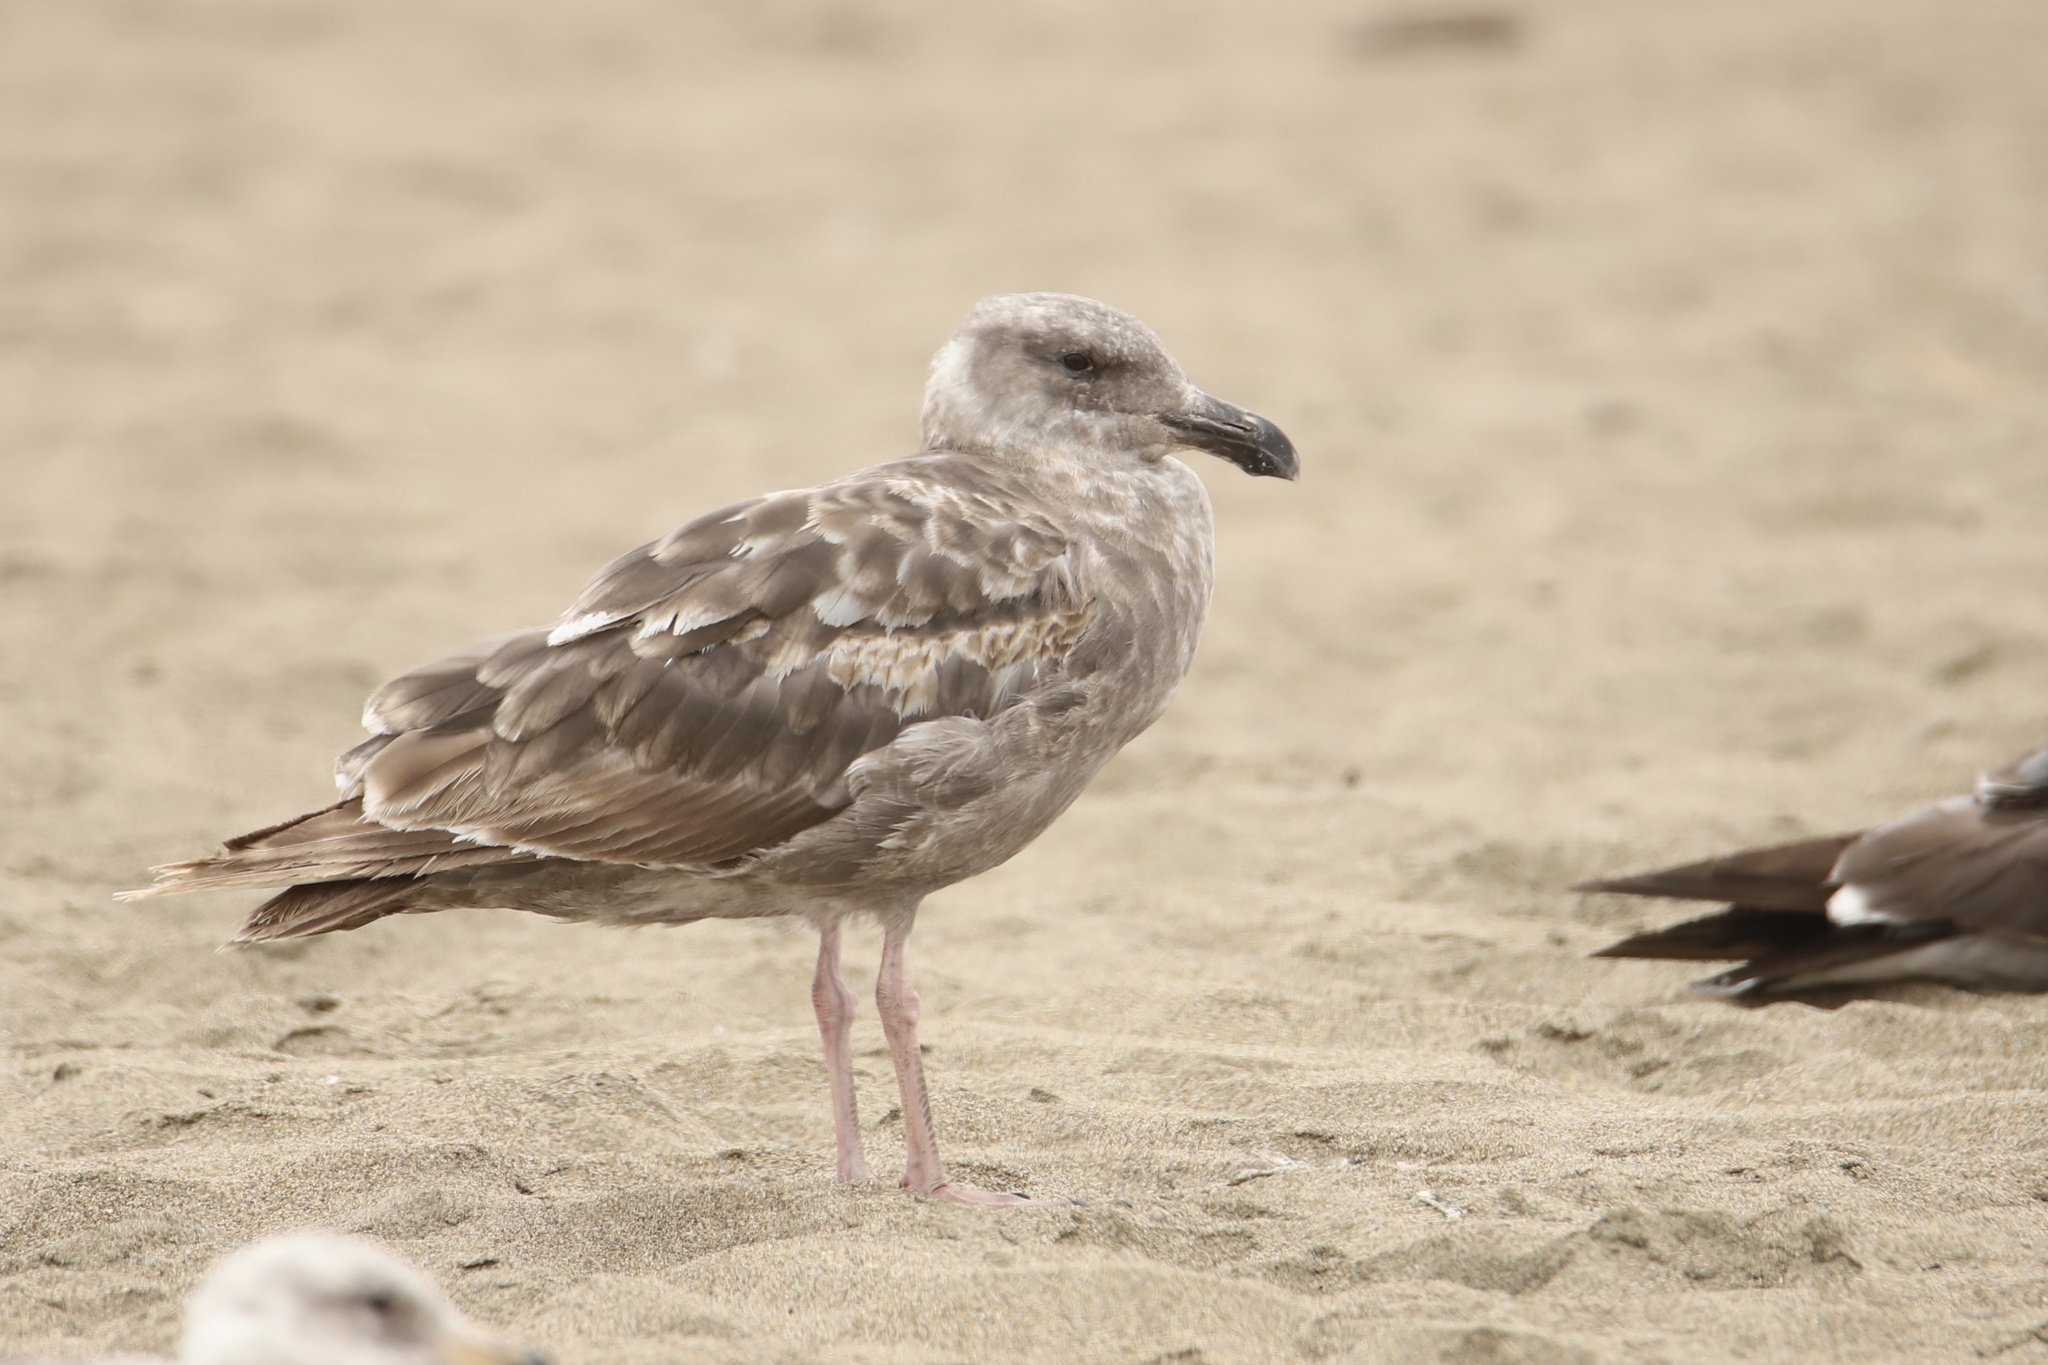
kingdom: Animalia
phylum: Chordata
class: Aves
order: Charadriiformes
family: Laridae
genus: Larus
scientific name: Larus occidentalis
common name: Western gull
